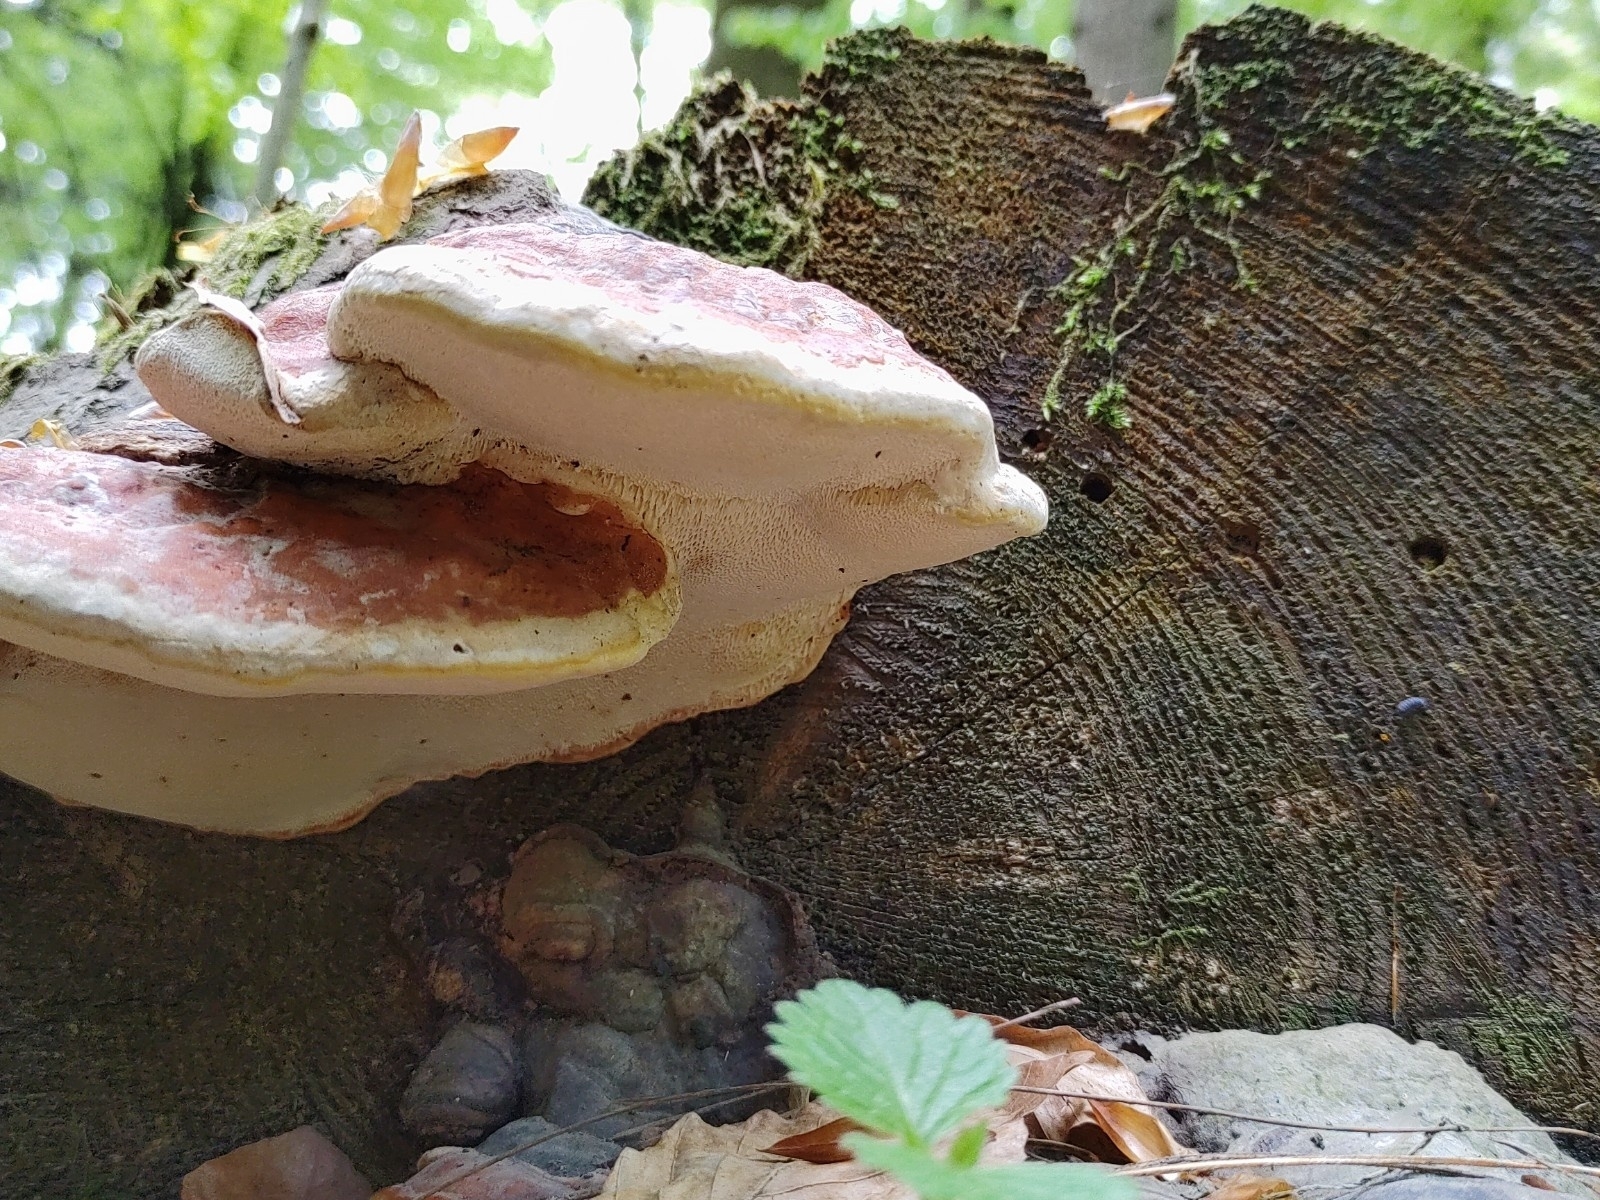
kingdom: Fungi
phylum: Basidiomycota
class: Agaricomycetes
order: Polyporales
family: Fomitopsidaceae
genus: Fomitopsis
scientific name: Fomitopsis pinicola
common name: Red-belted bracket
